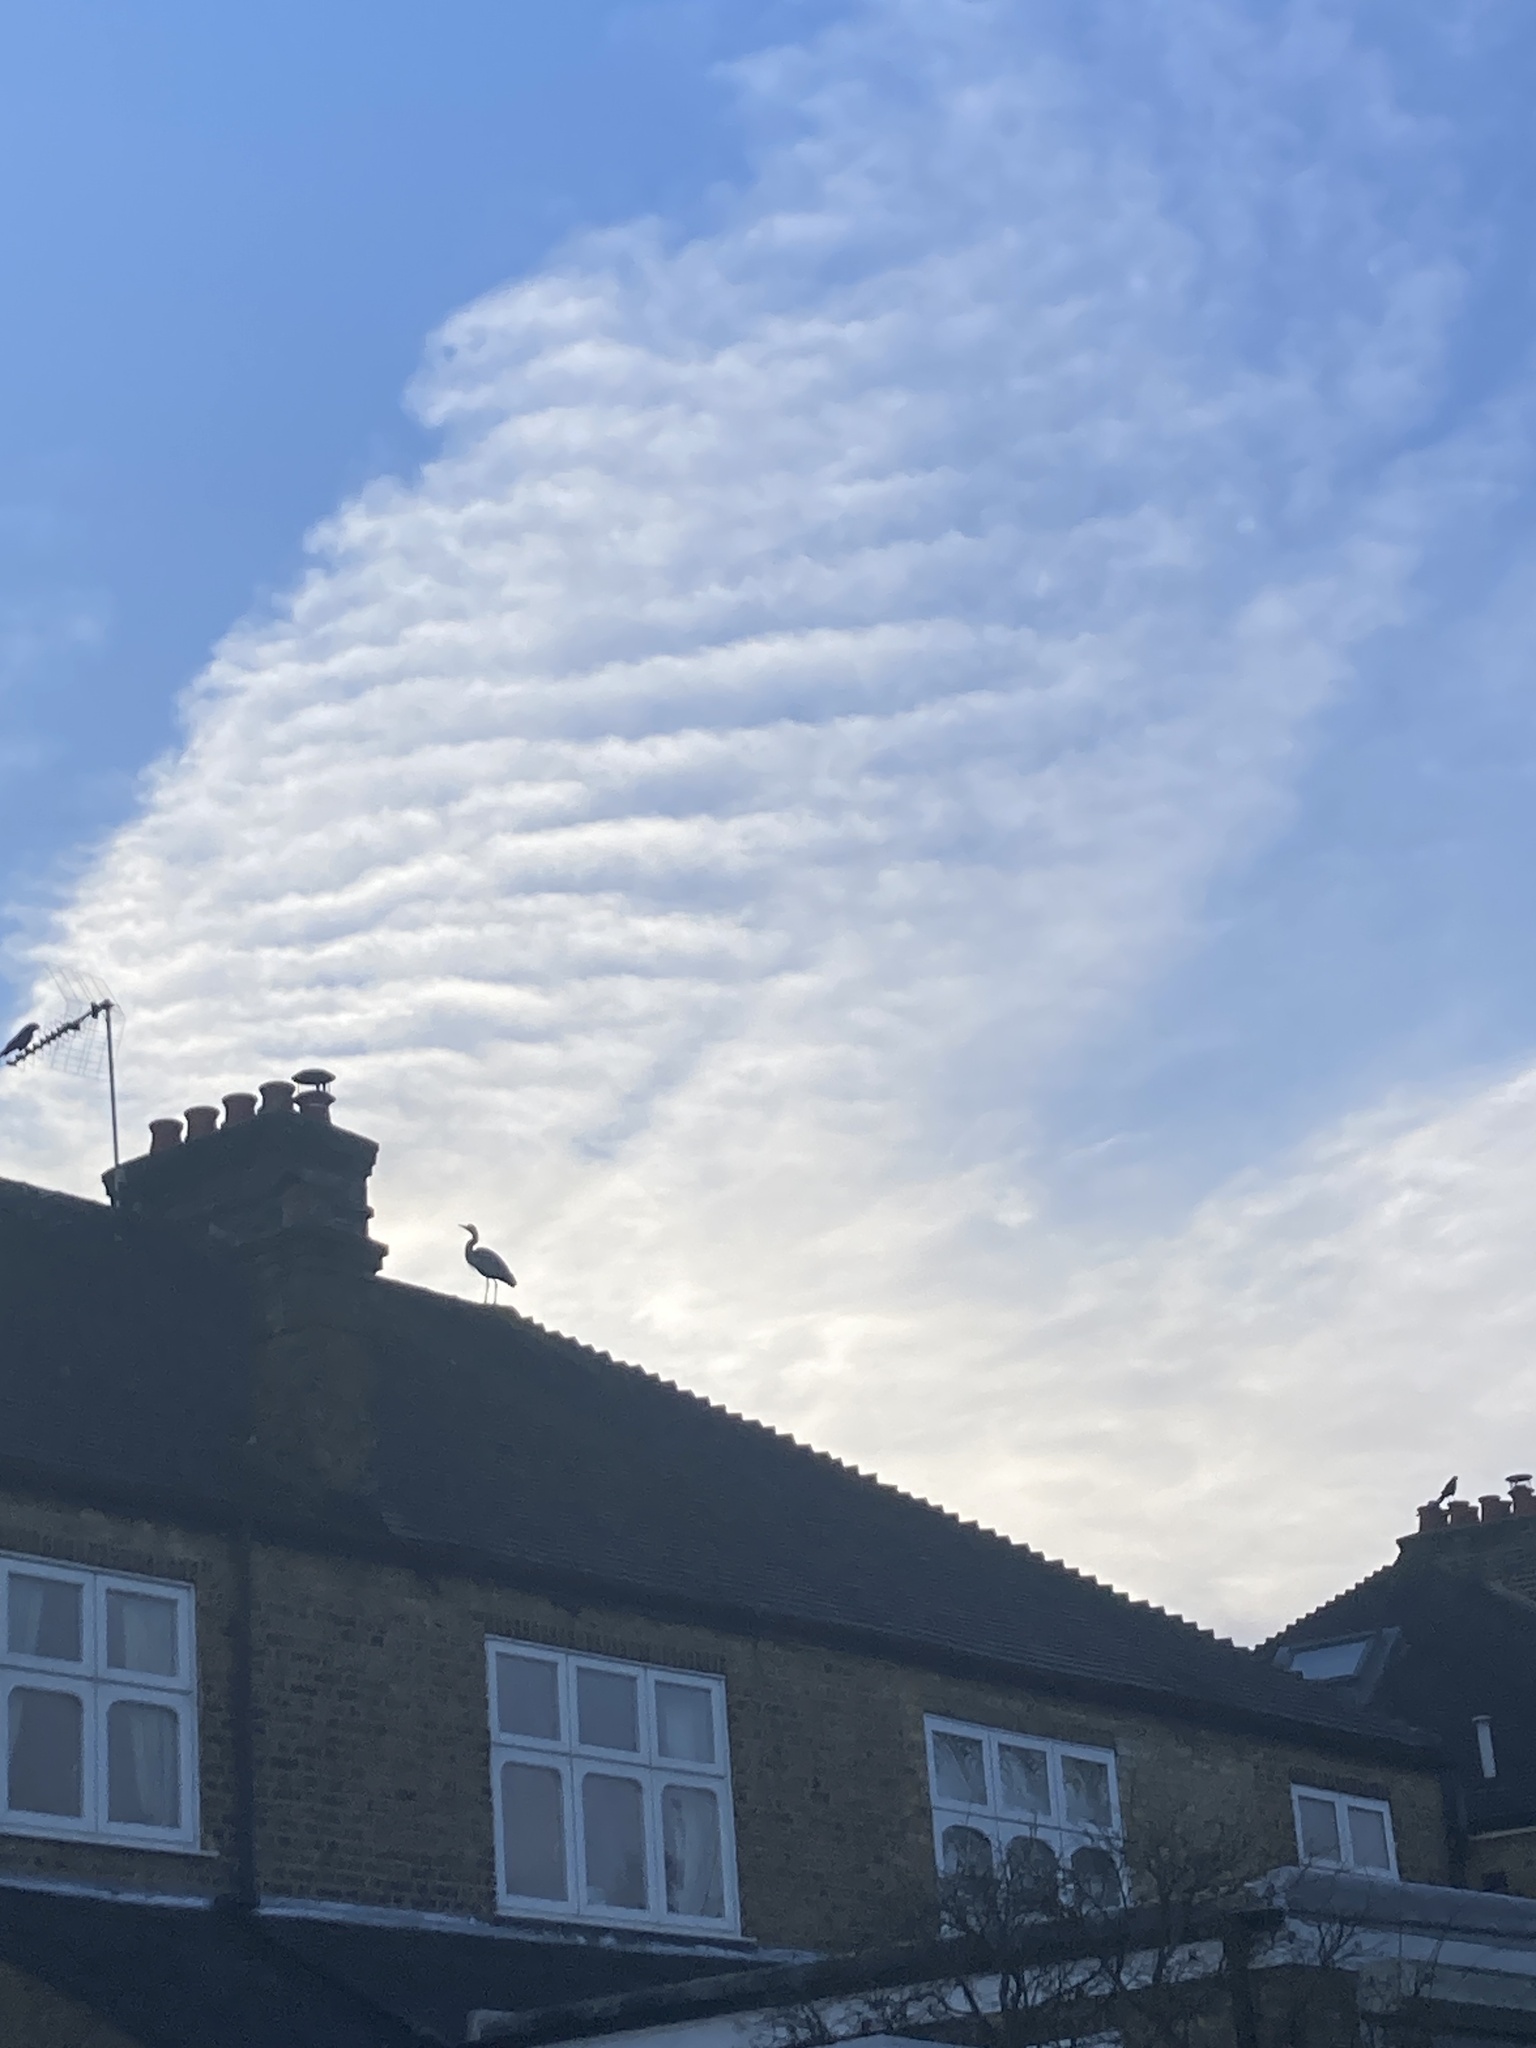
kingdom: Animalia
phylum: Chordata
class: Aves
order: Pelecaniformes
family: Ardeidae
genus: Ardea
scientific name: Ardea cinerea
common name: Grey heron
